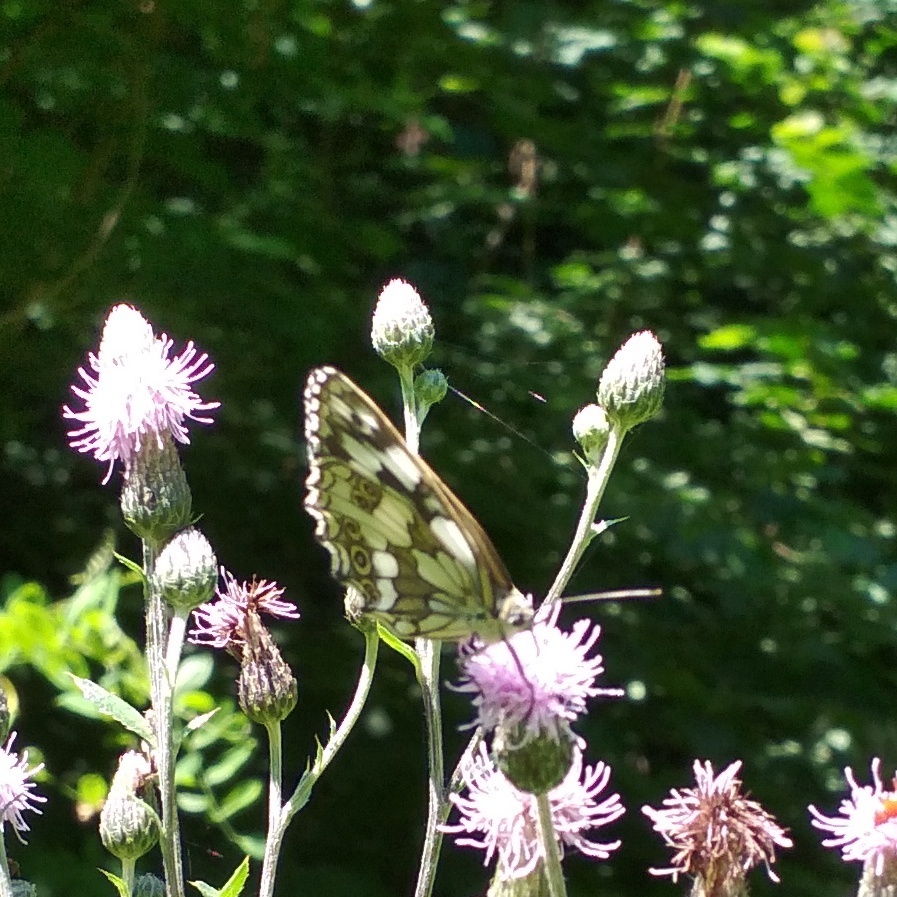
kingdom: Animalia
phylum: Arthropoda
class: Insecta
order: Lepidoptera
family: Nymphalidae
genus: Melanargia
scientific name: Melanargia galathea
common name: Marbled white
